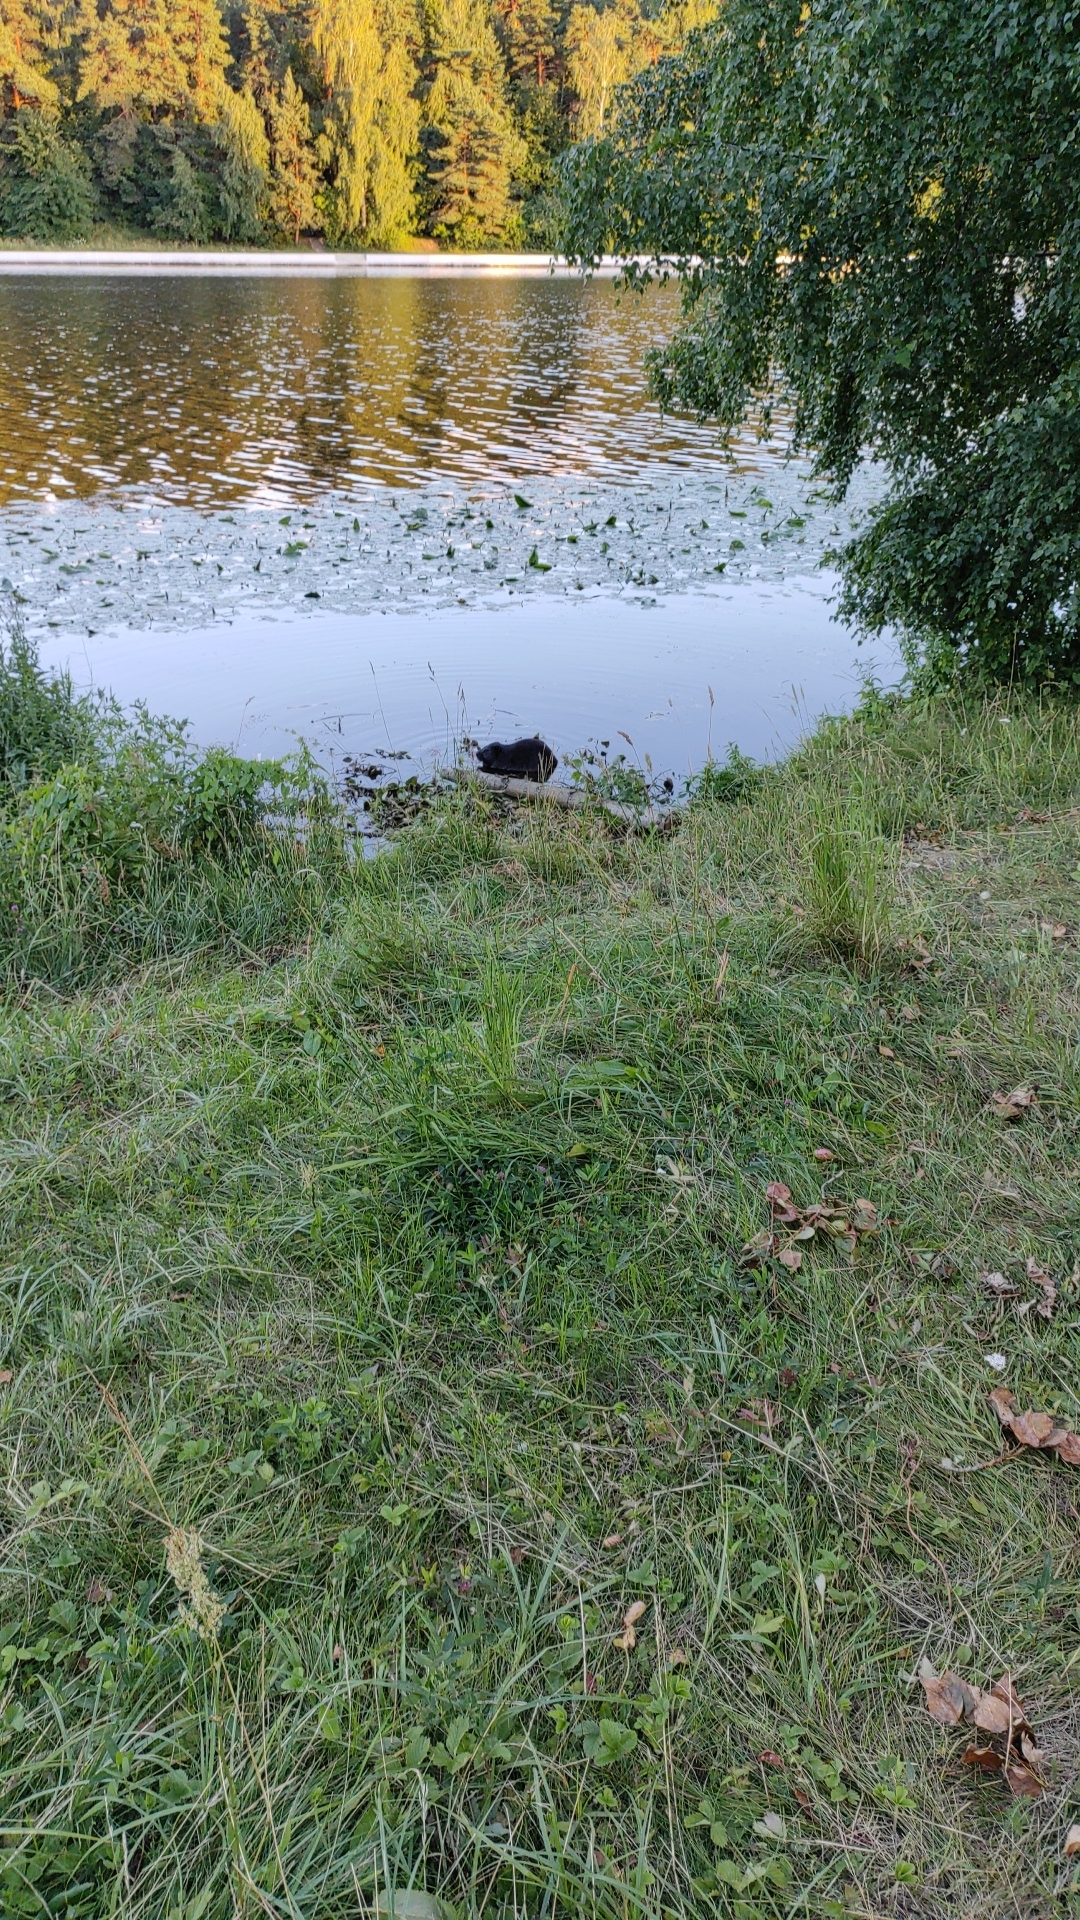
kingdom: Animalia
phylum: Chordata
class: Mammalia
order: Rodentia
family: Castoridae
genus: Castor
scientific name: Castor fiber
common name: Eurasian beaver
